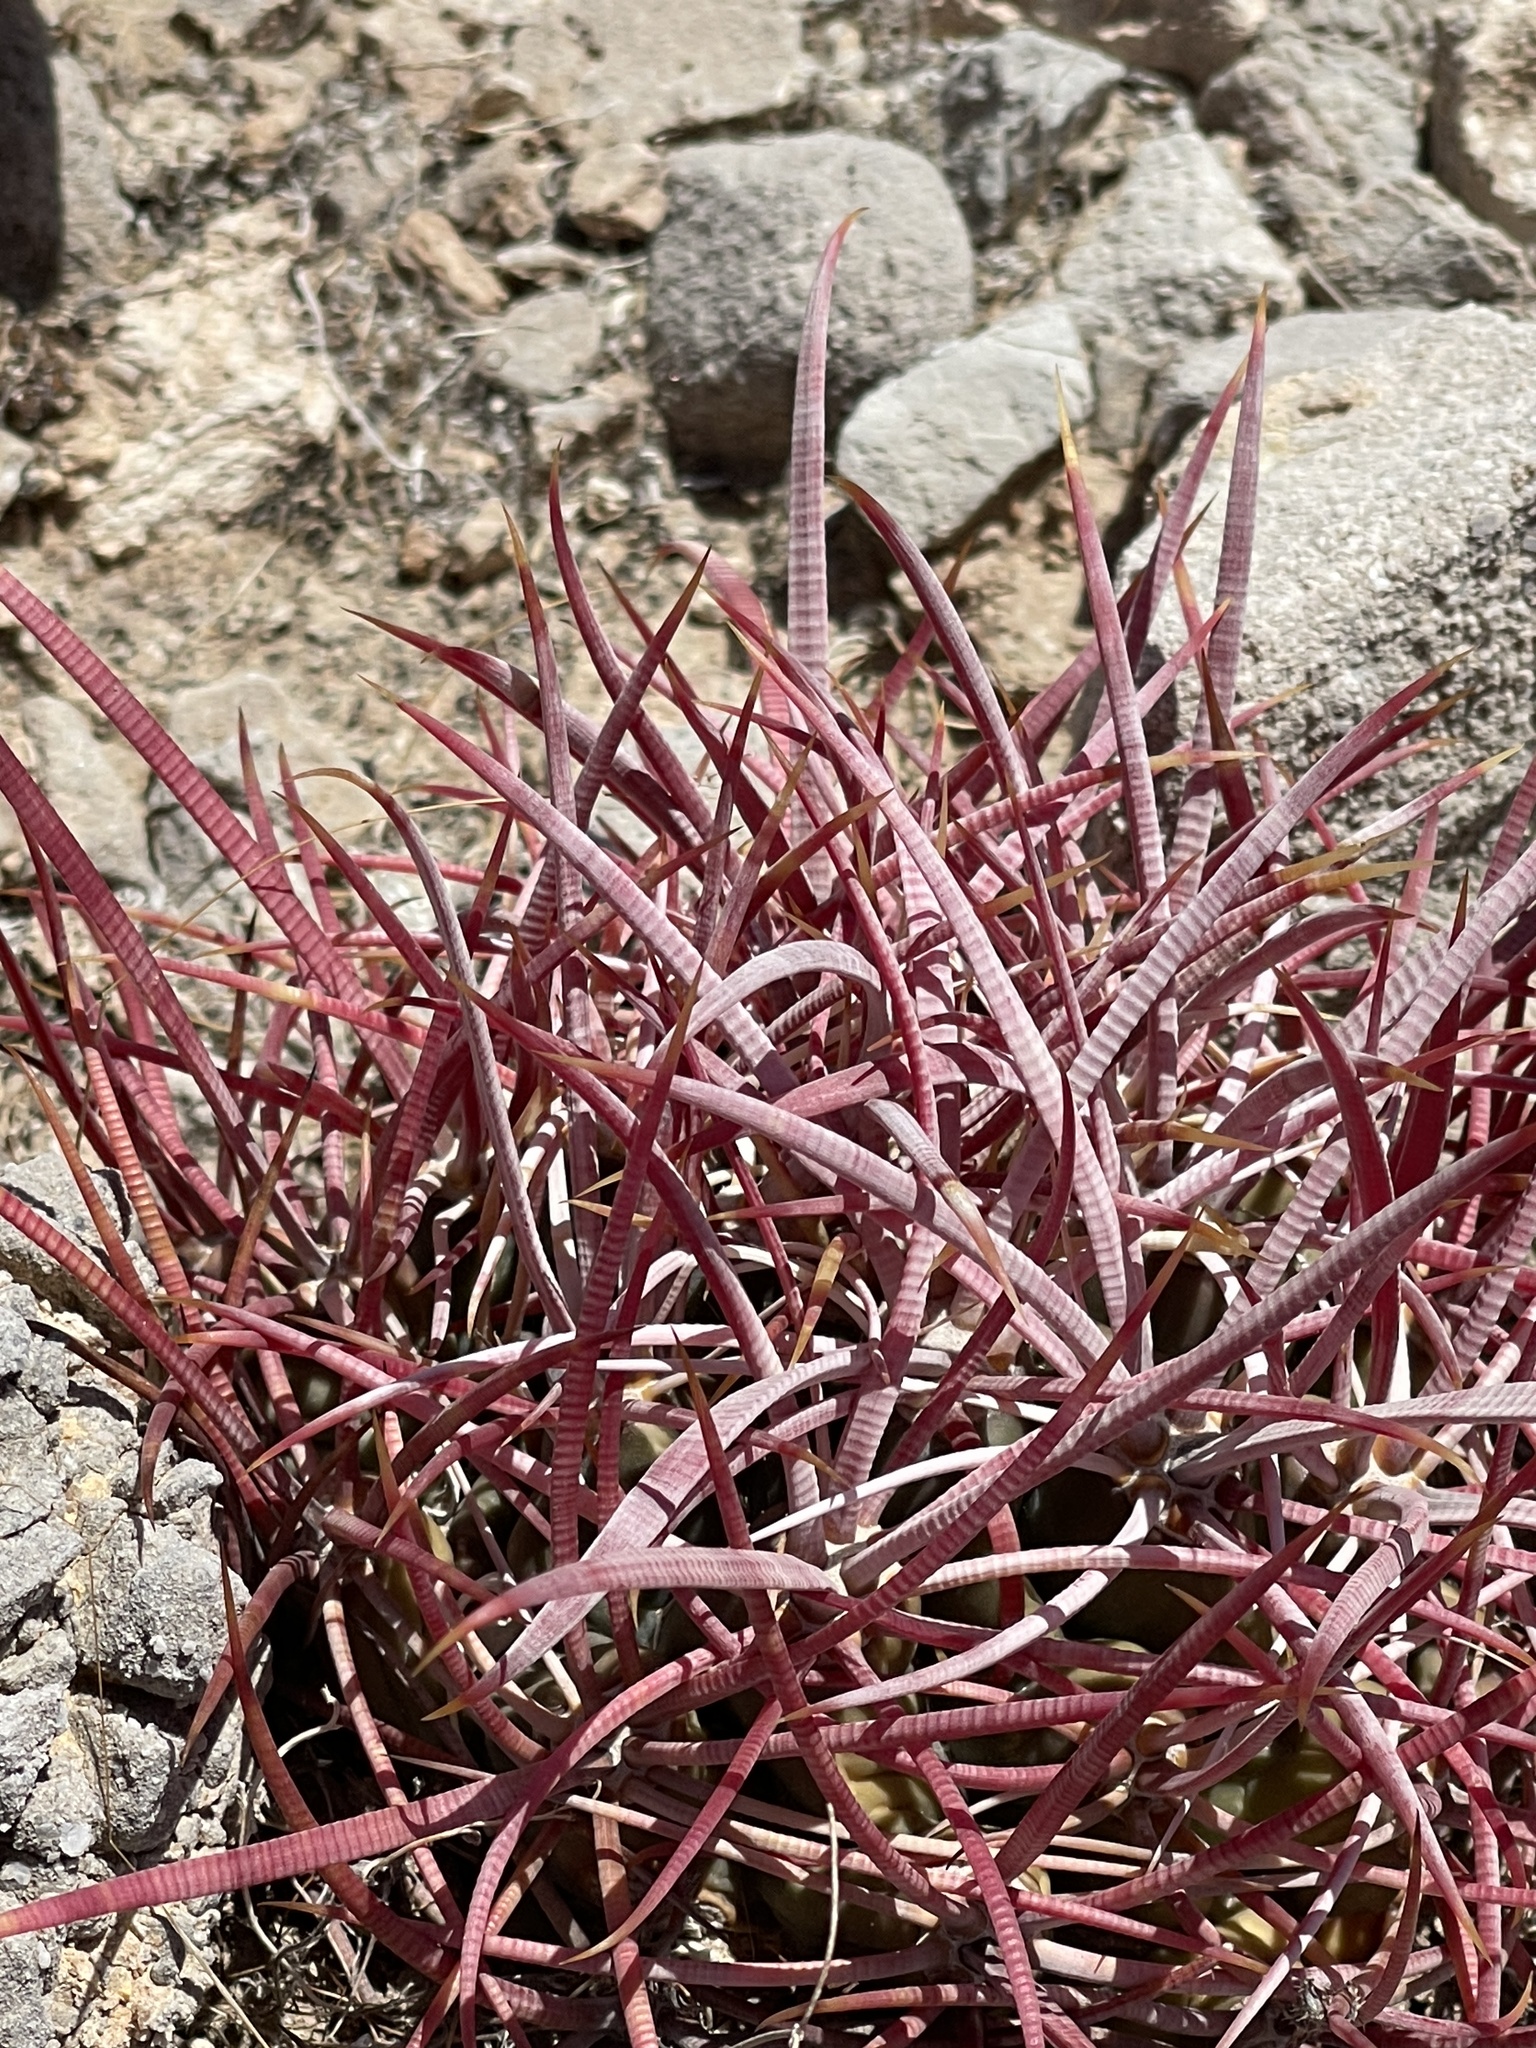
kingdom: Plantae
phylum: Tracheophyta
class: Magnoliopsida
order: Caryophyllales
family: Cactaceae
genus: Ferocactus
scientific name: Ferocactus cylindraceus
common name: California barrel cactus
